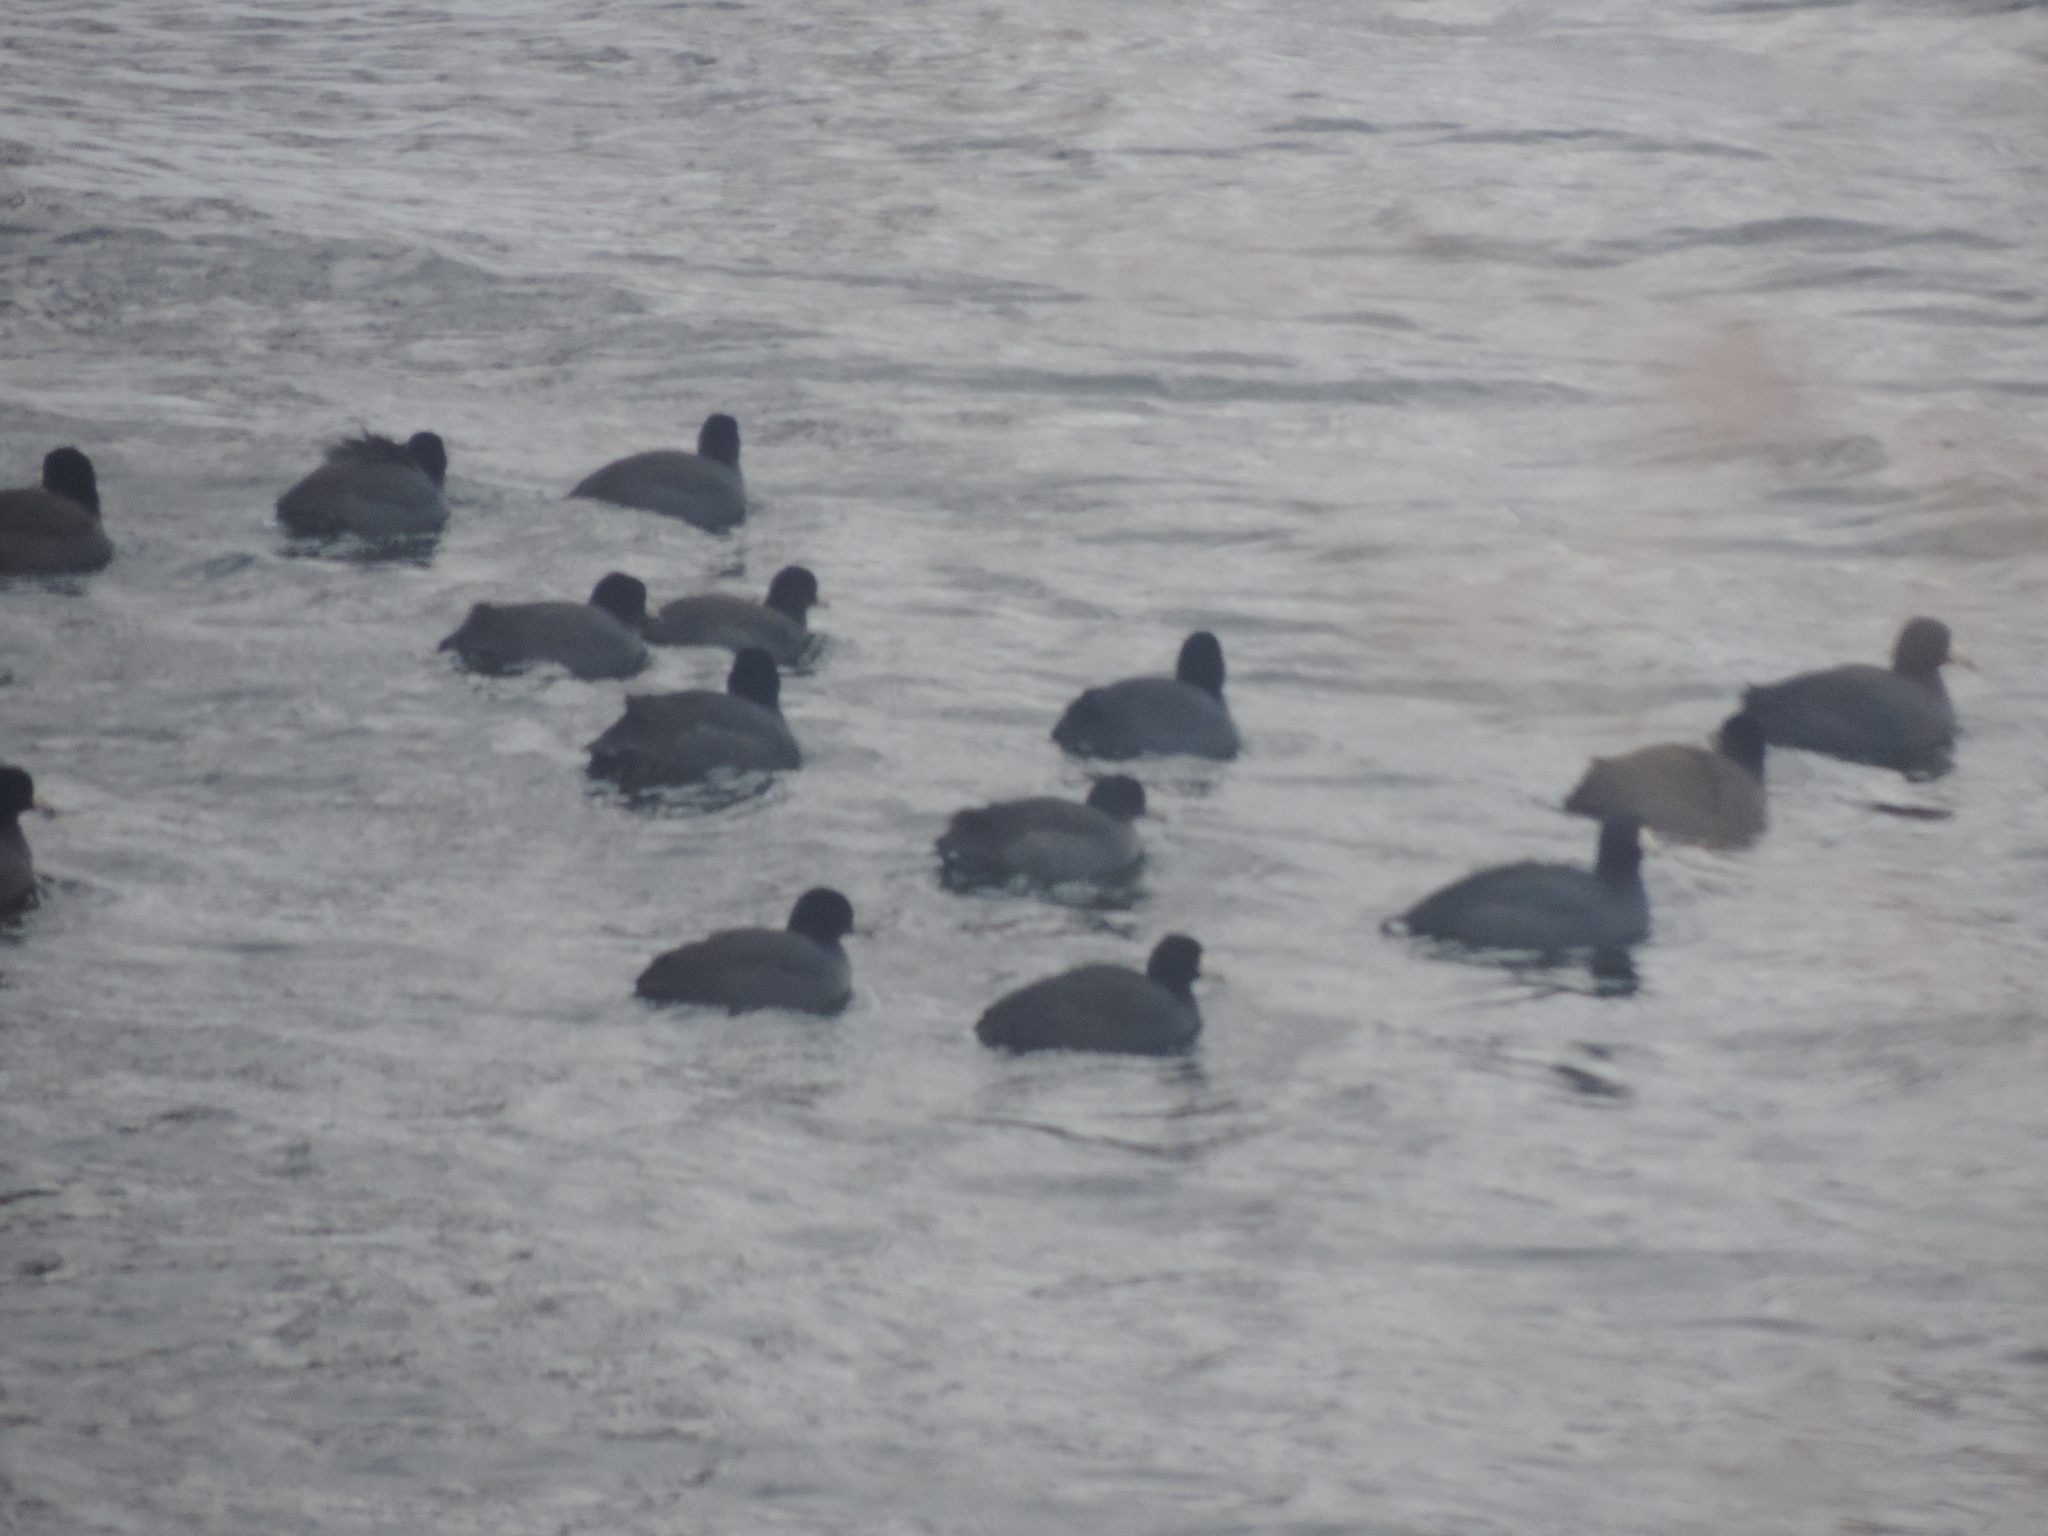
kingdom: Animalia
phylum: Chordata
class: Aves
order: Gruiformes
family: Rallidae
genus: Fulica
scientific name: Fulica americana
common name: American coot
